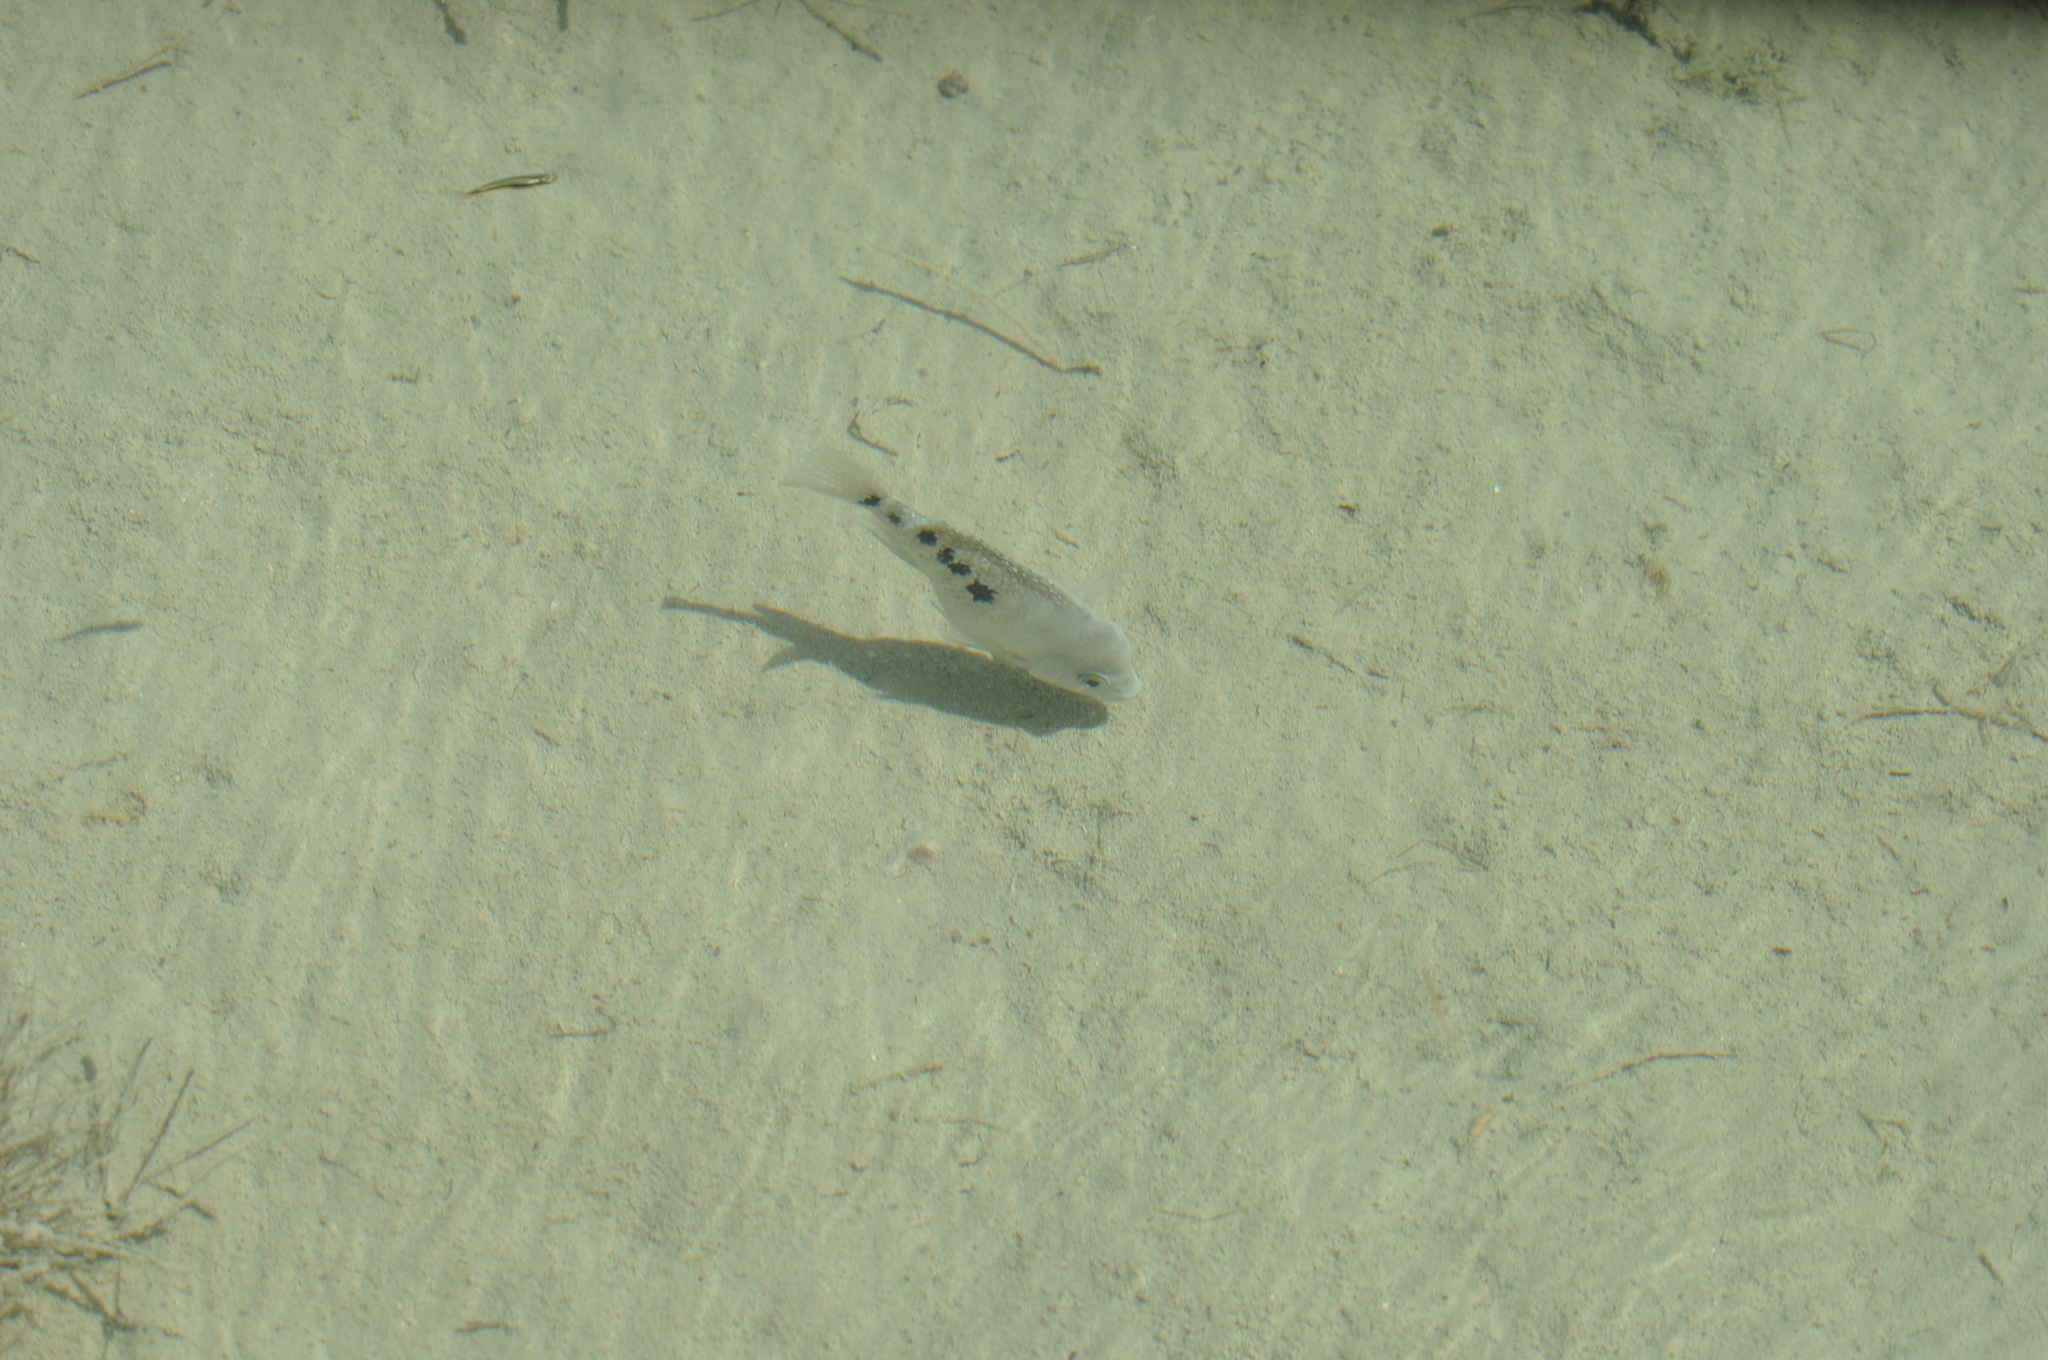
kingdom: Animalia
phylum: Chordata
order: Perciformes
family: Cichlidae
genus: Herichthys
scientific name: Herichthys minckleyi
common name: Minkley's cichlid
